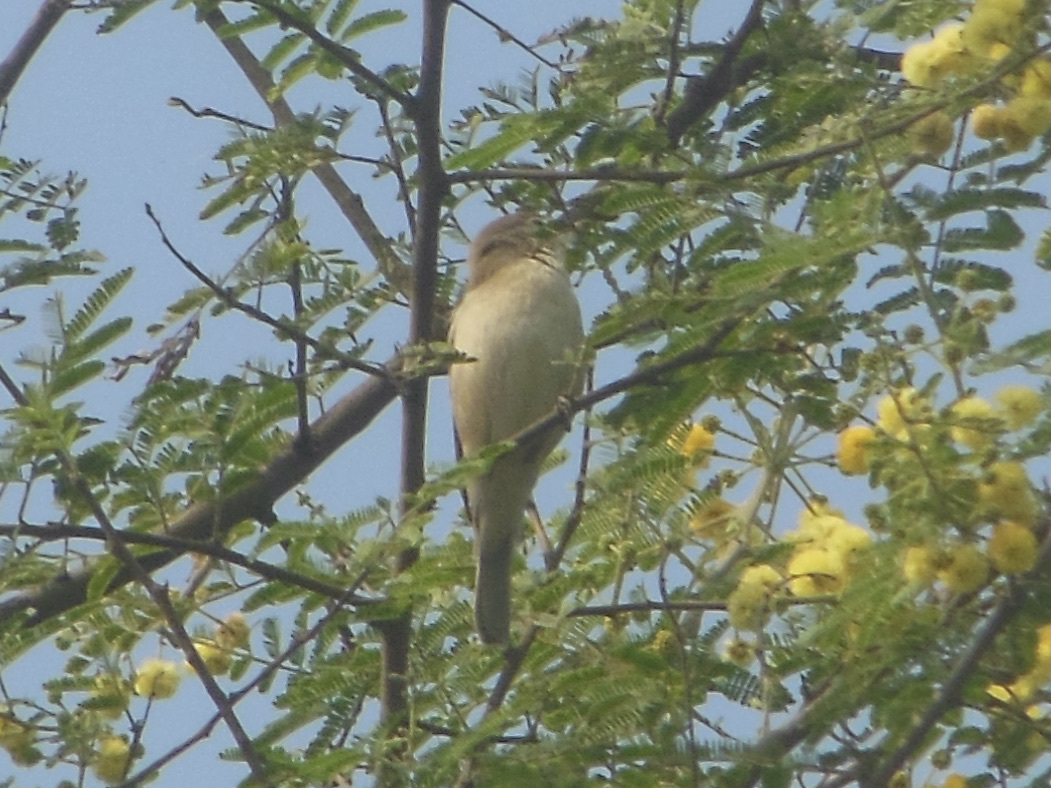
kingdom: Animalia
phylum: Chordata
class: Aves
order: Passeriformes
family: Acrocephalidae
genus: Acrocephalus
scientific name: Acrocephalus dumetorum
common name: Blyth's reed warbler
